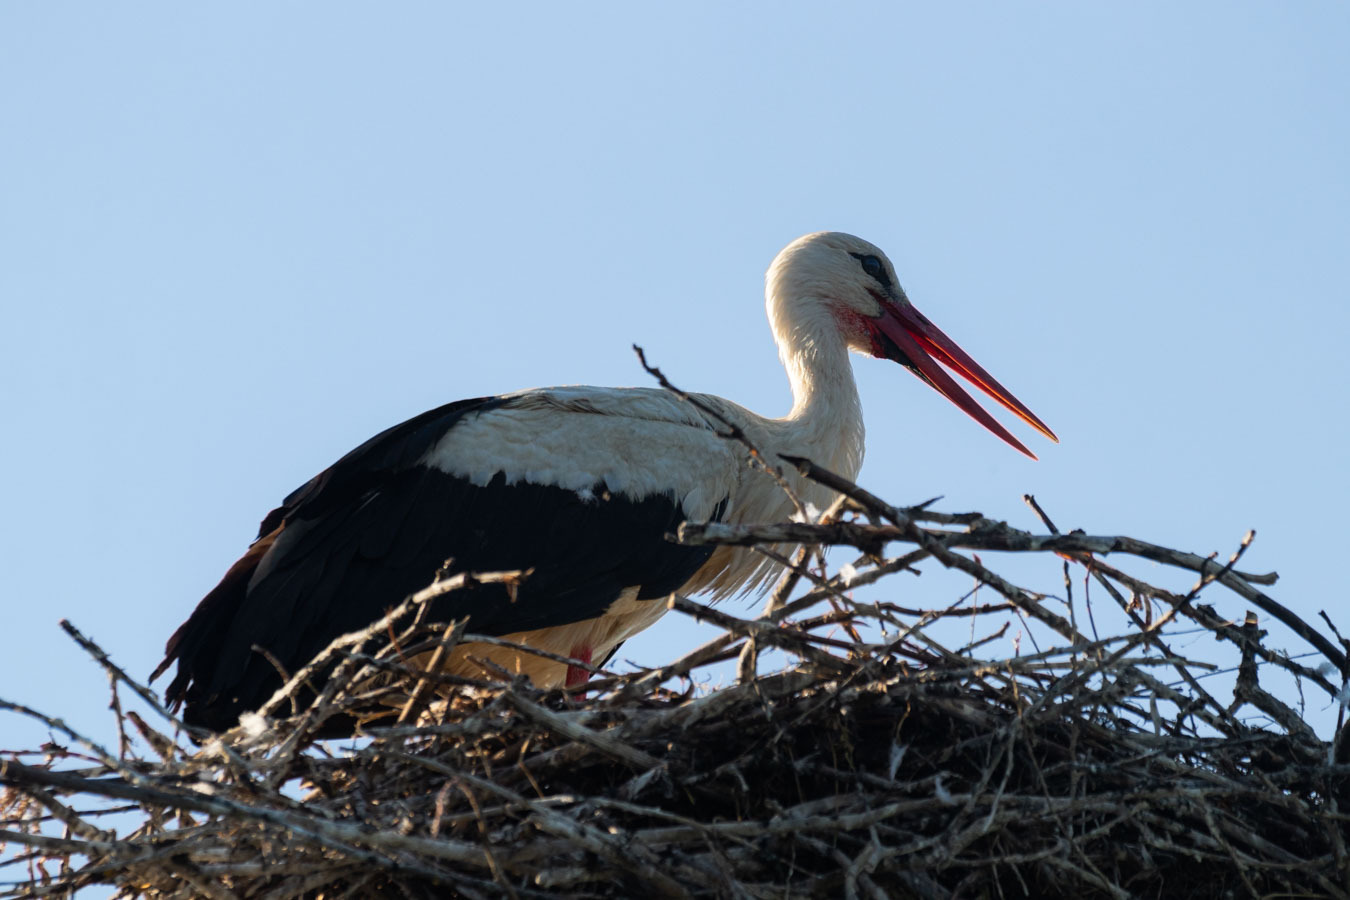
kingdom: Animalia
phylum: Chordata
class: Aves
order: Ciconiiformes
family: Ciconiidae
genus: Ciconia
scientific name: Ciconia ciconia
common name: White stork
